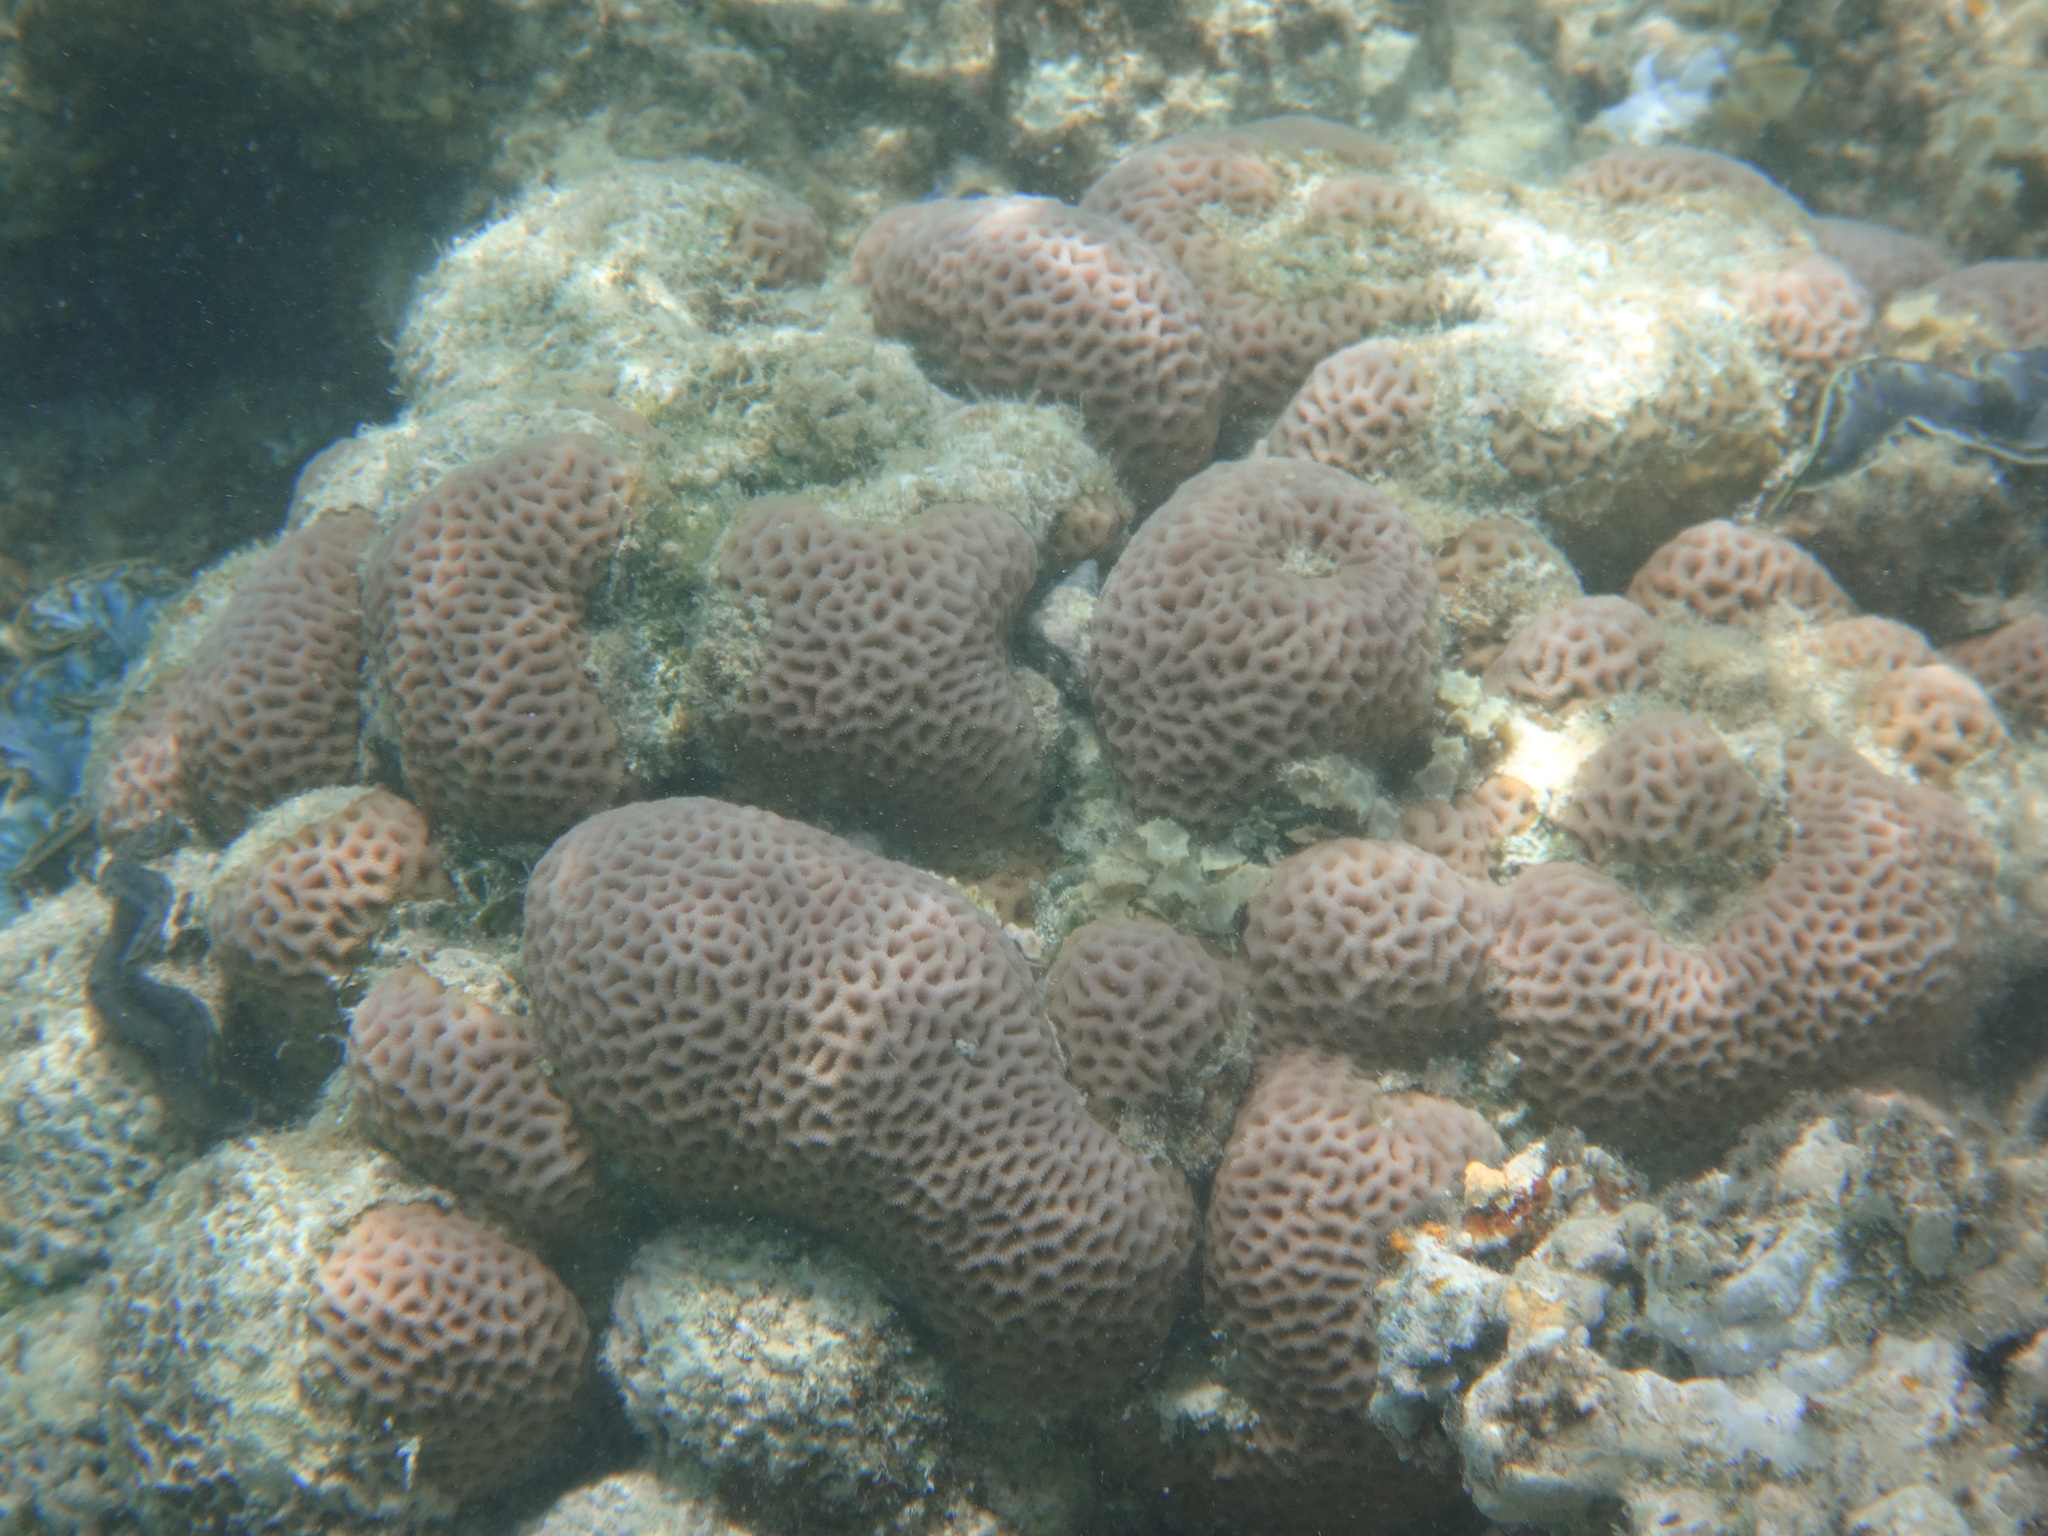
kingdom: Animalia
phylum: Cnidaria
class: Anthozoa
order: Scleractinia
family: Merulinidae
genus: Goniastrea
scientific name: Goniastrea pectinata
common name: Lesser star coral
